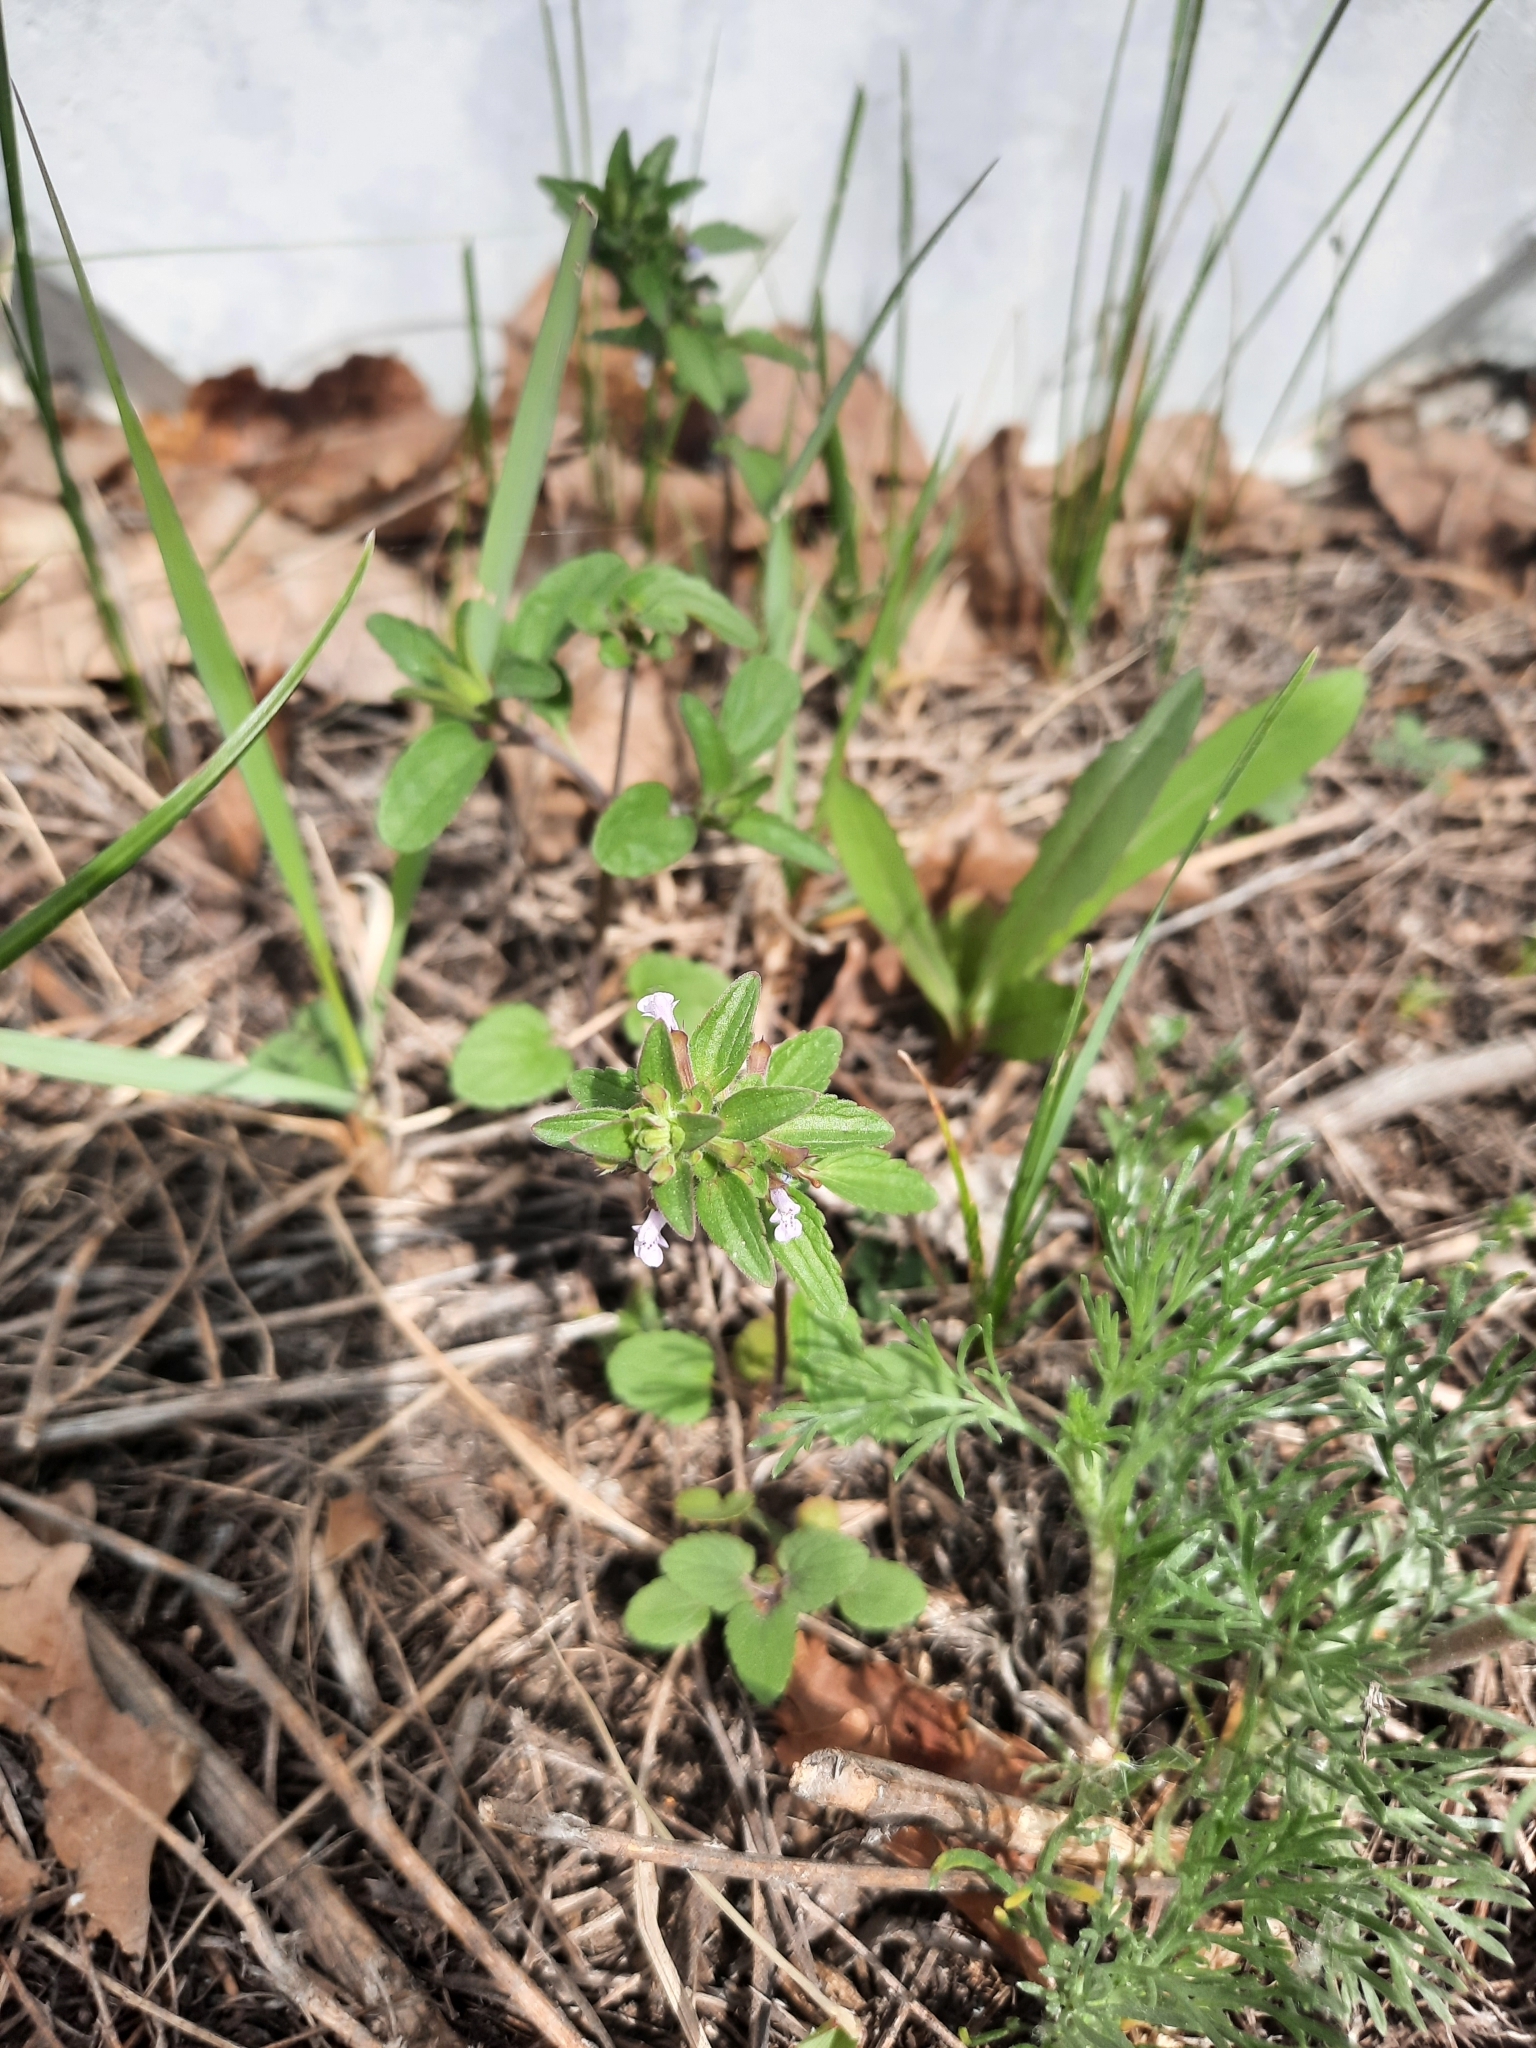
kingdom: Plantae
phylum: Tracheophyta
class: Magnoliopsida
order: Lamiales
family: Lamiaceae
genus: Dracocephalum
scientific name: Dracocephalum thymiflorum
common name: Thymeleaf dragonhead
